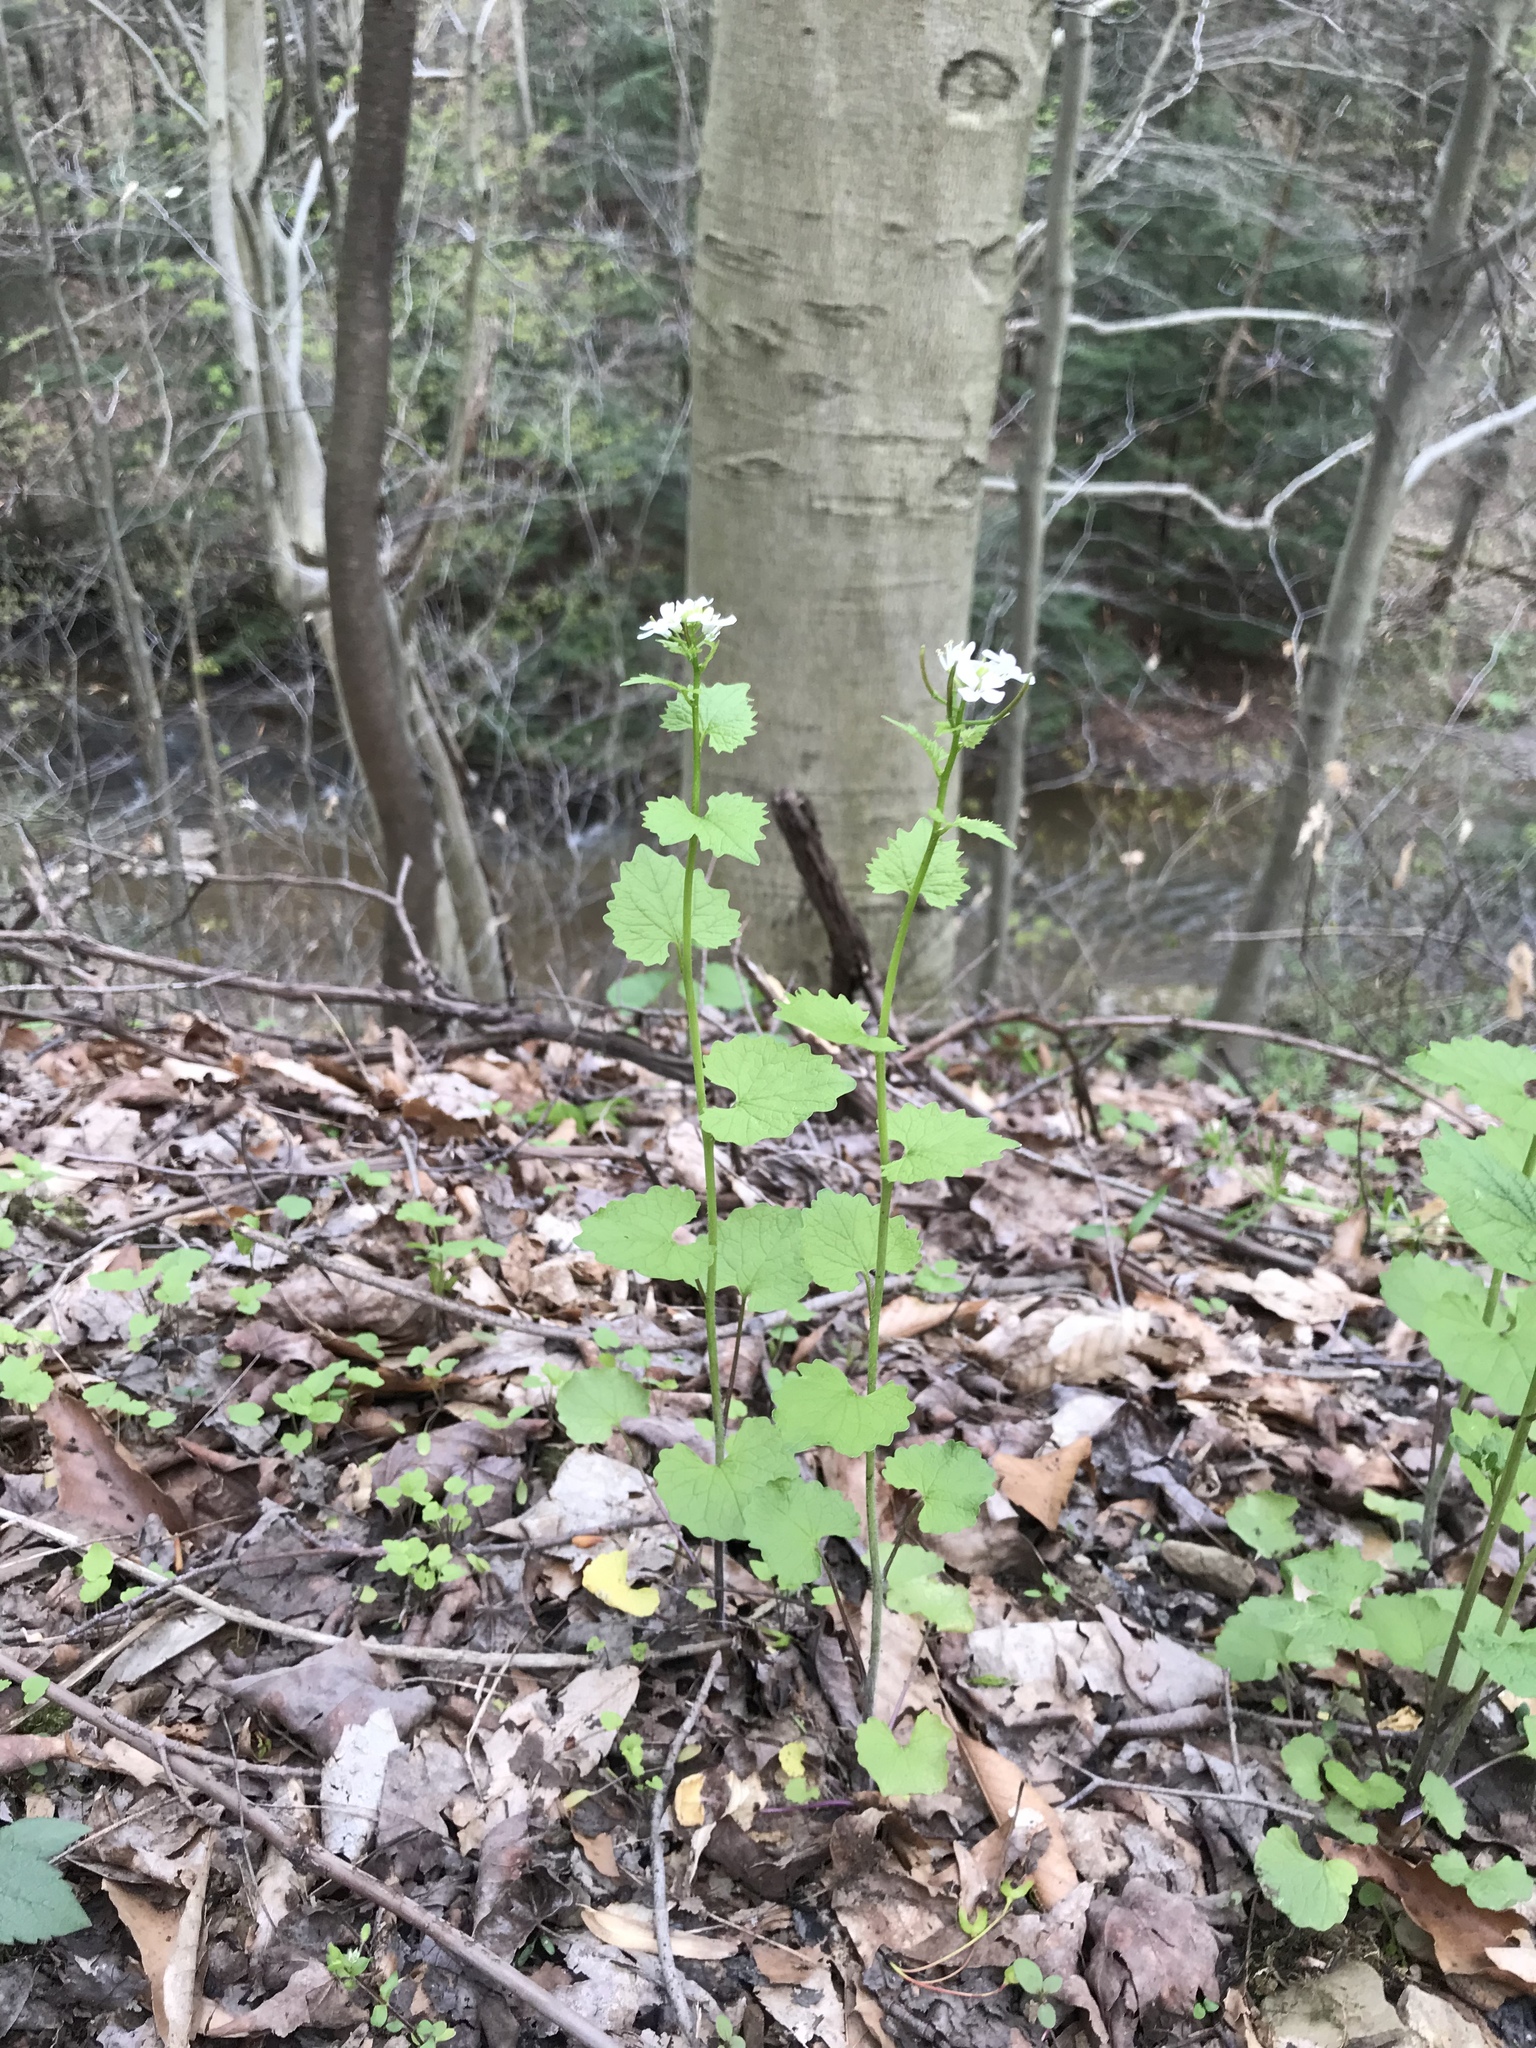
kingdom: Plantae
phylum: Tracheophyta
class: Magnoliopsida
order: Brassicales
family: Brassicaceae
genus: Alliaria
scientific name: Alliaria petiolata
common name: Garlic mustard
